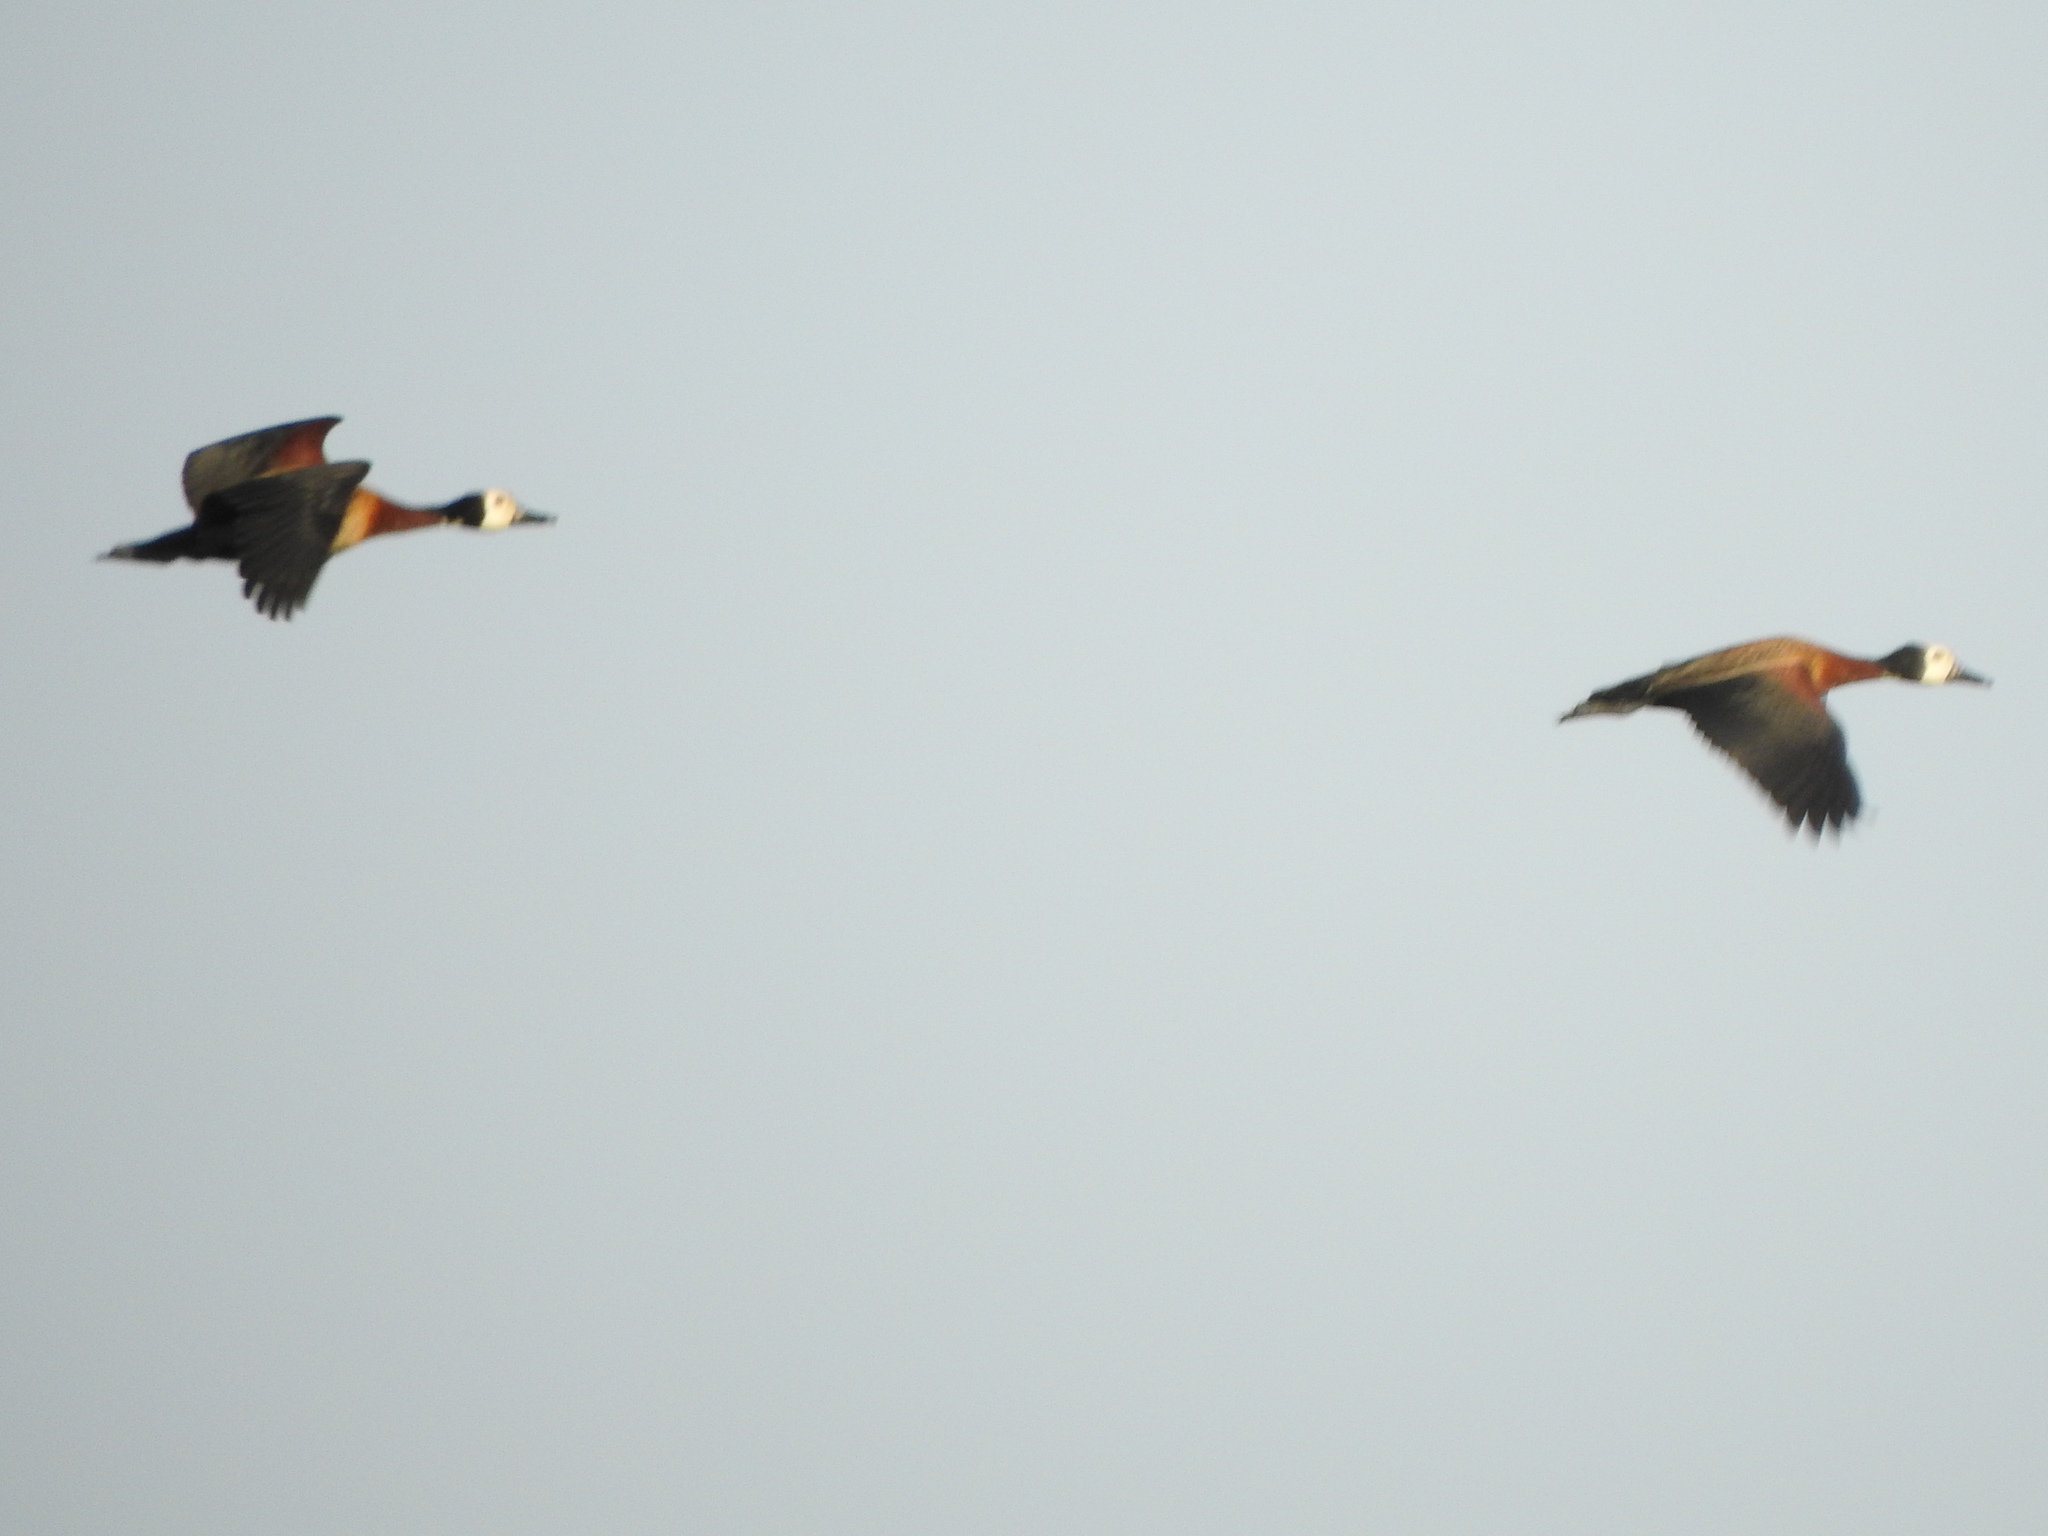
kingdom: Animalia
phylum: Chordata
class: Aves
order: Anseriformes
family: Anatidae
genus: Dendrocygna
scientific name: Dendrocygna viduata
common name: White-faced whistling duck
